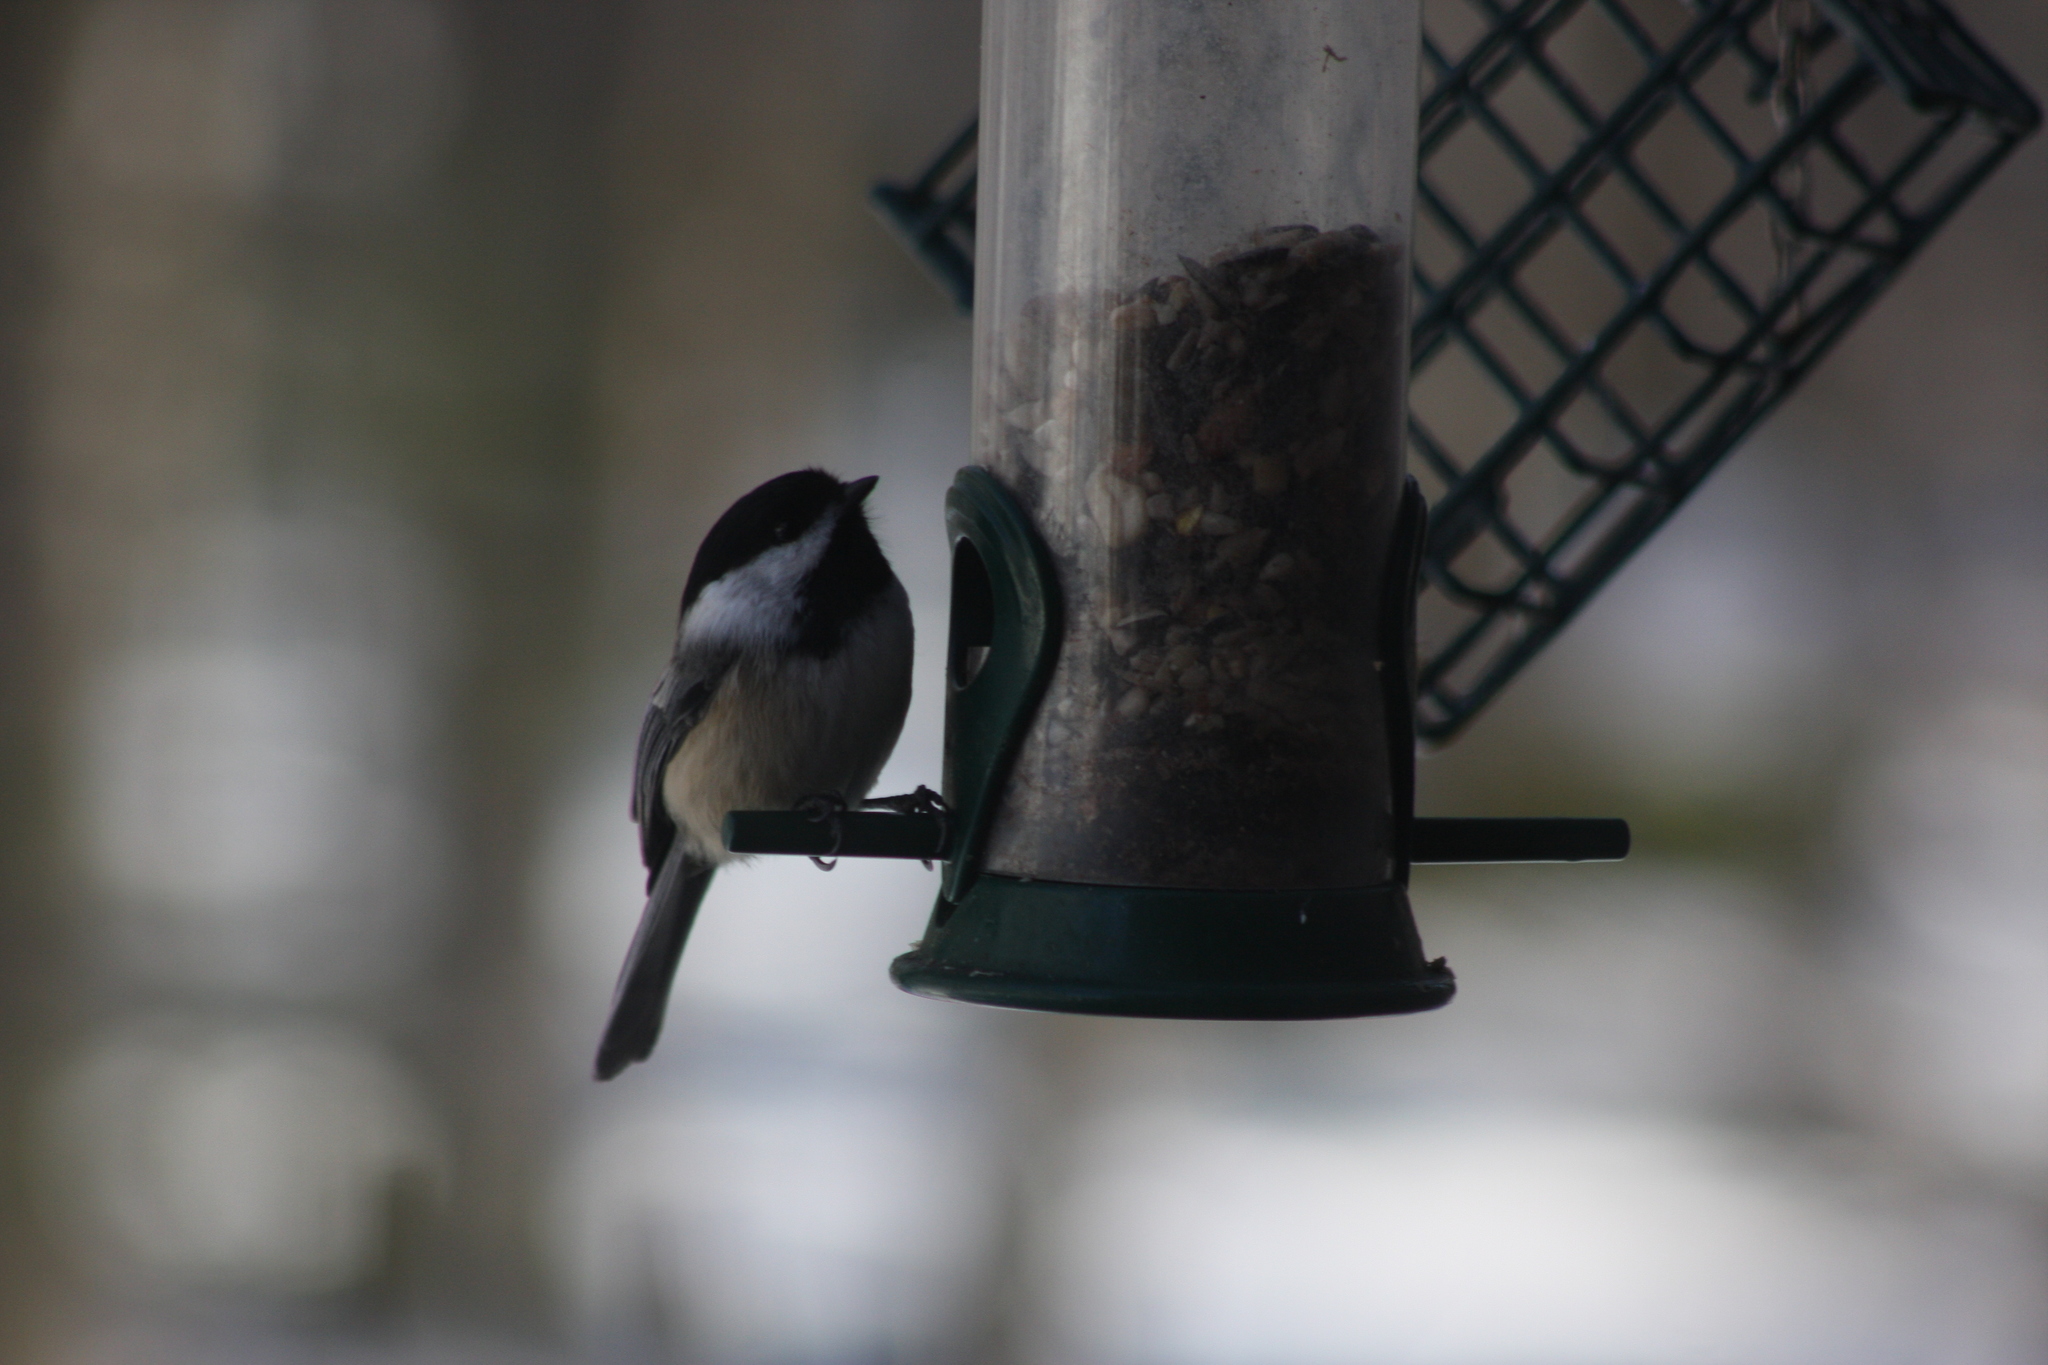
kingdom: Animalia
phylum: Chordata
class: Aves
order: Passeriformes
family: Paridae
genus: Poecile
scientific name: Poecile atricapillus
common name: Black-capped chickadee
